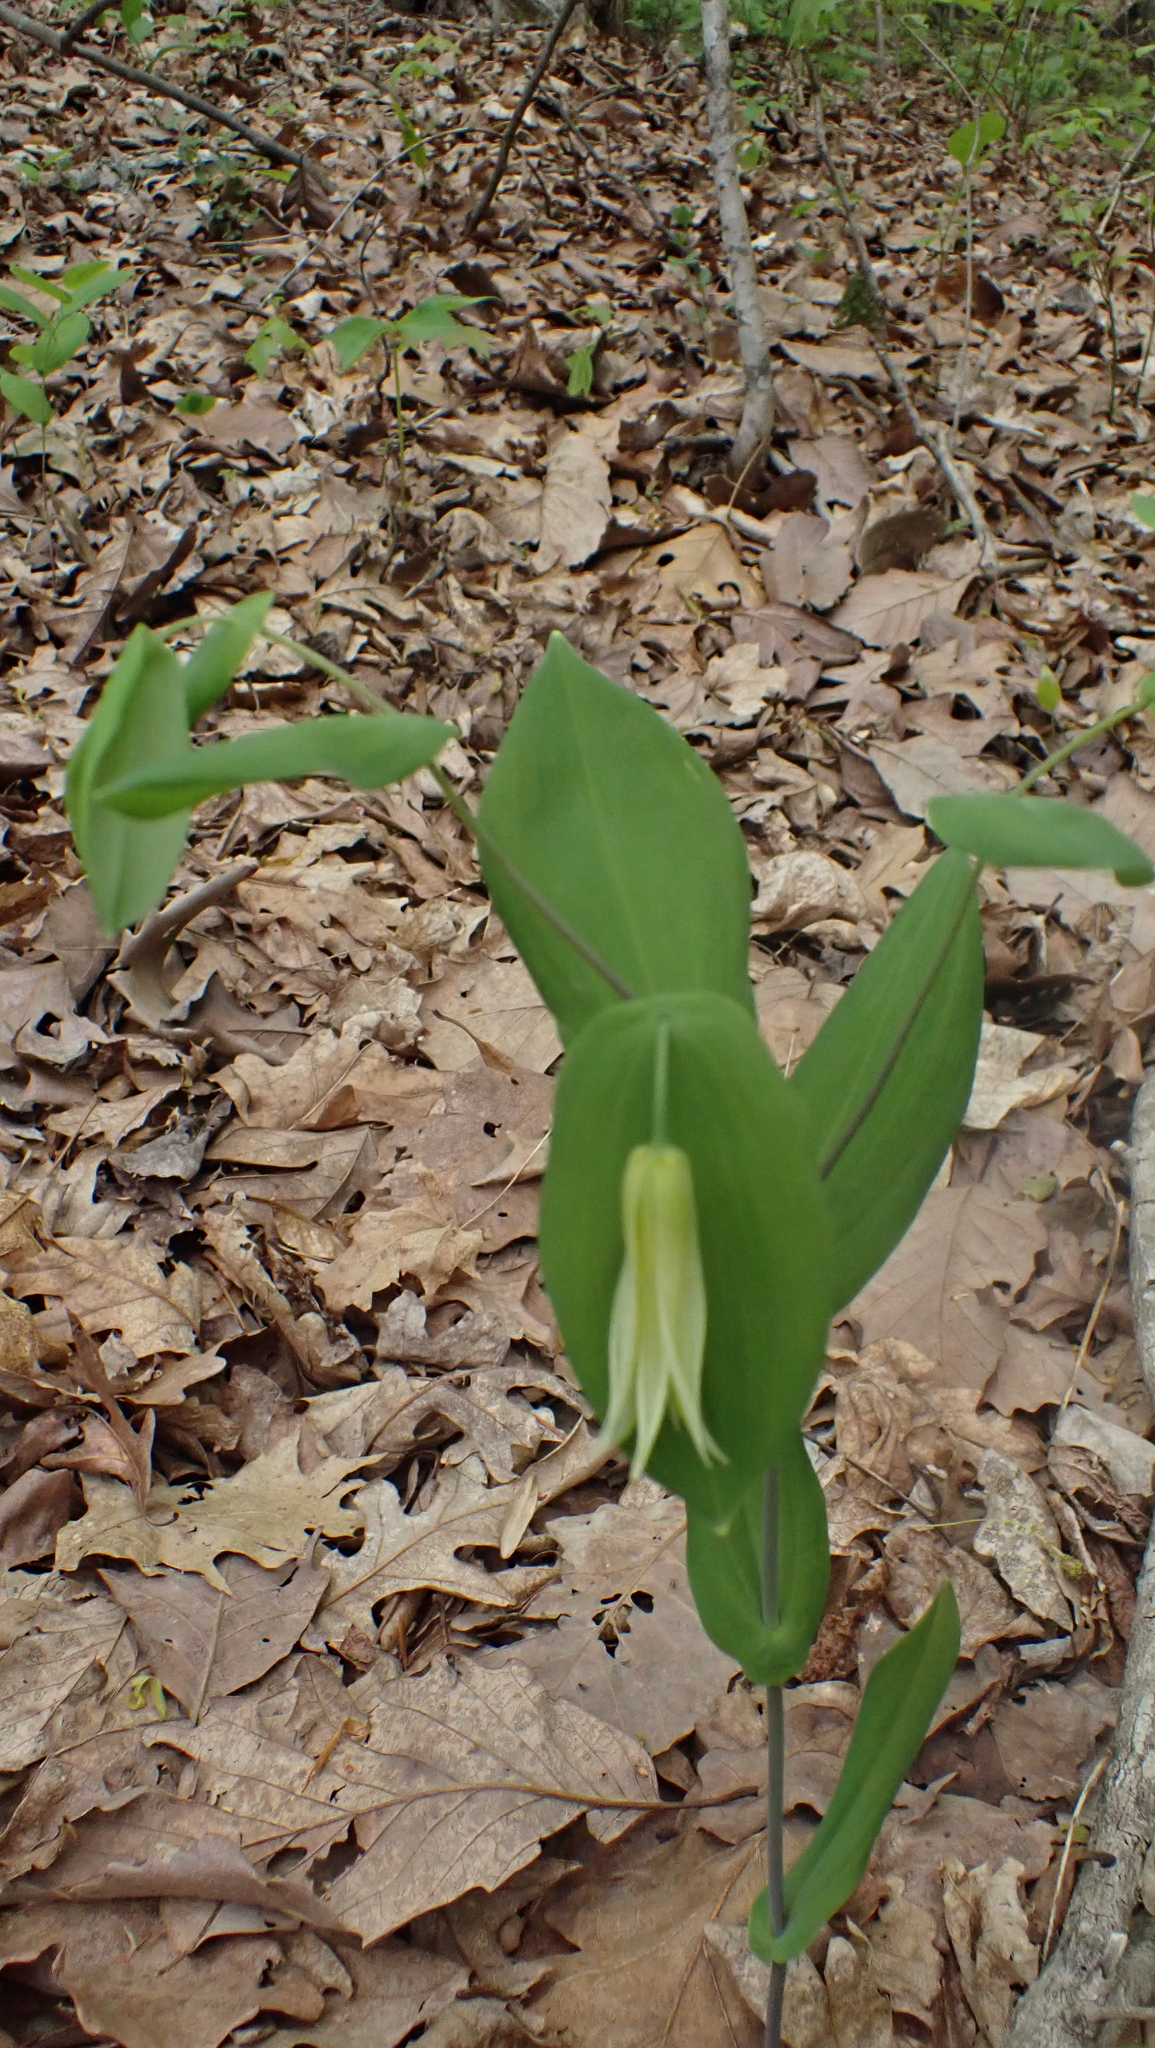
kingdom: Plantae
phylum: Tracheophyta
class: Liliopsida
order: Liliales
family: Colchicaceae
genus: Uvularia
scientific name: Uvularia perfoliata
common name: Perfoliate bellwort
